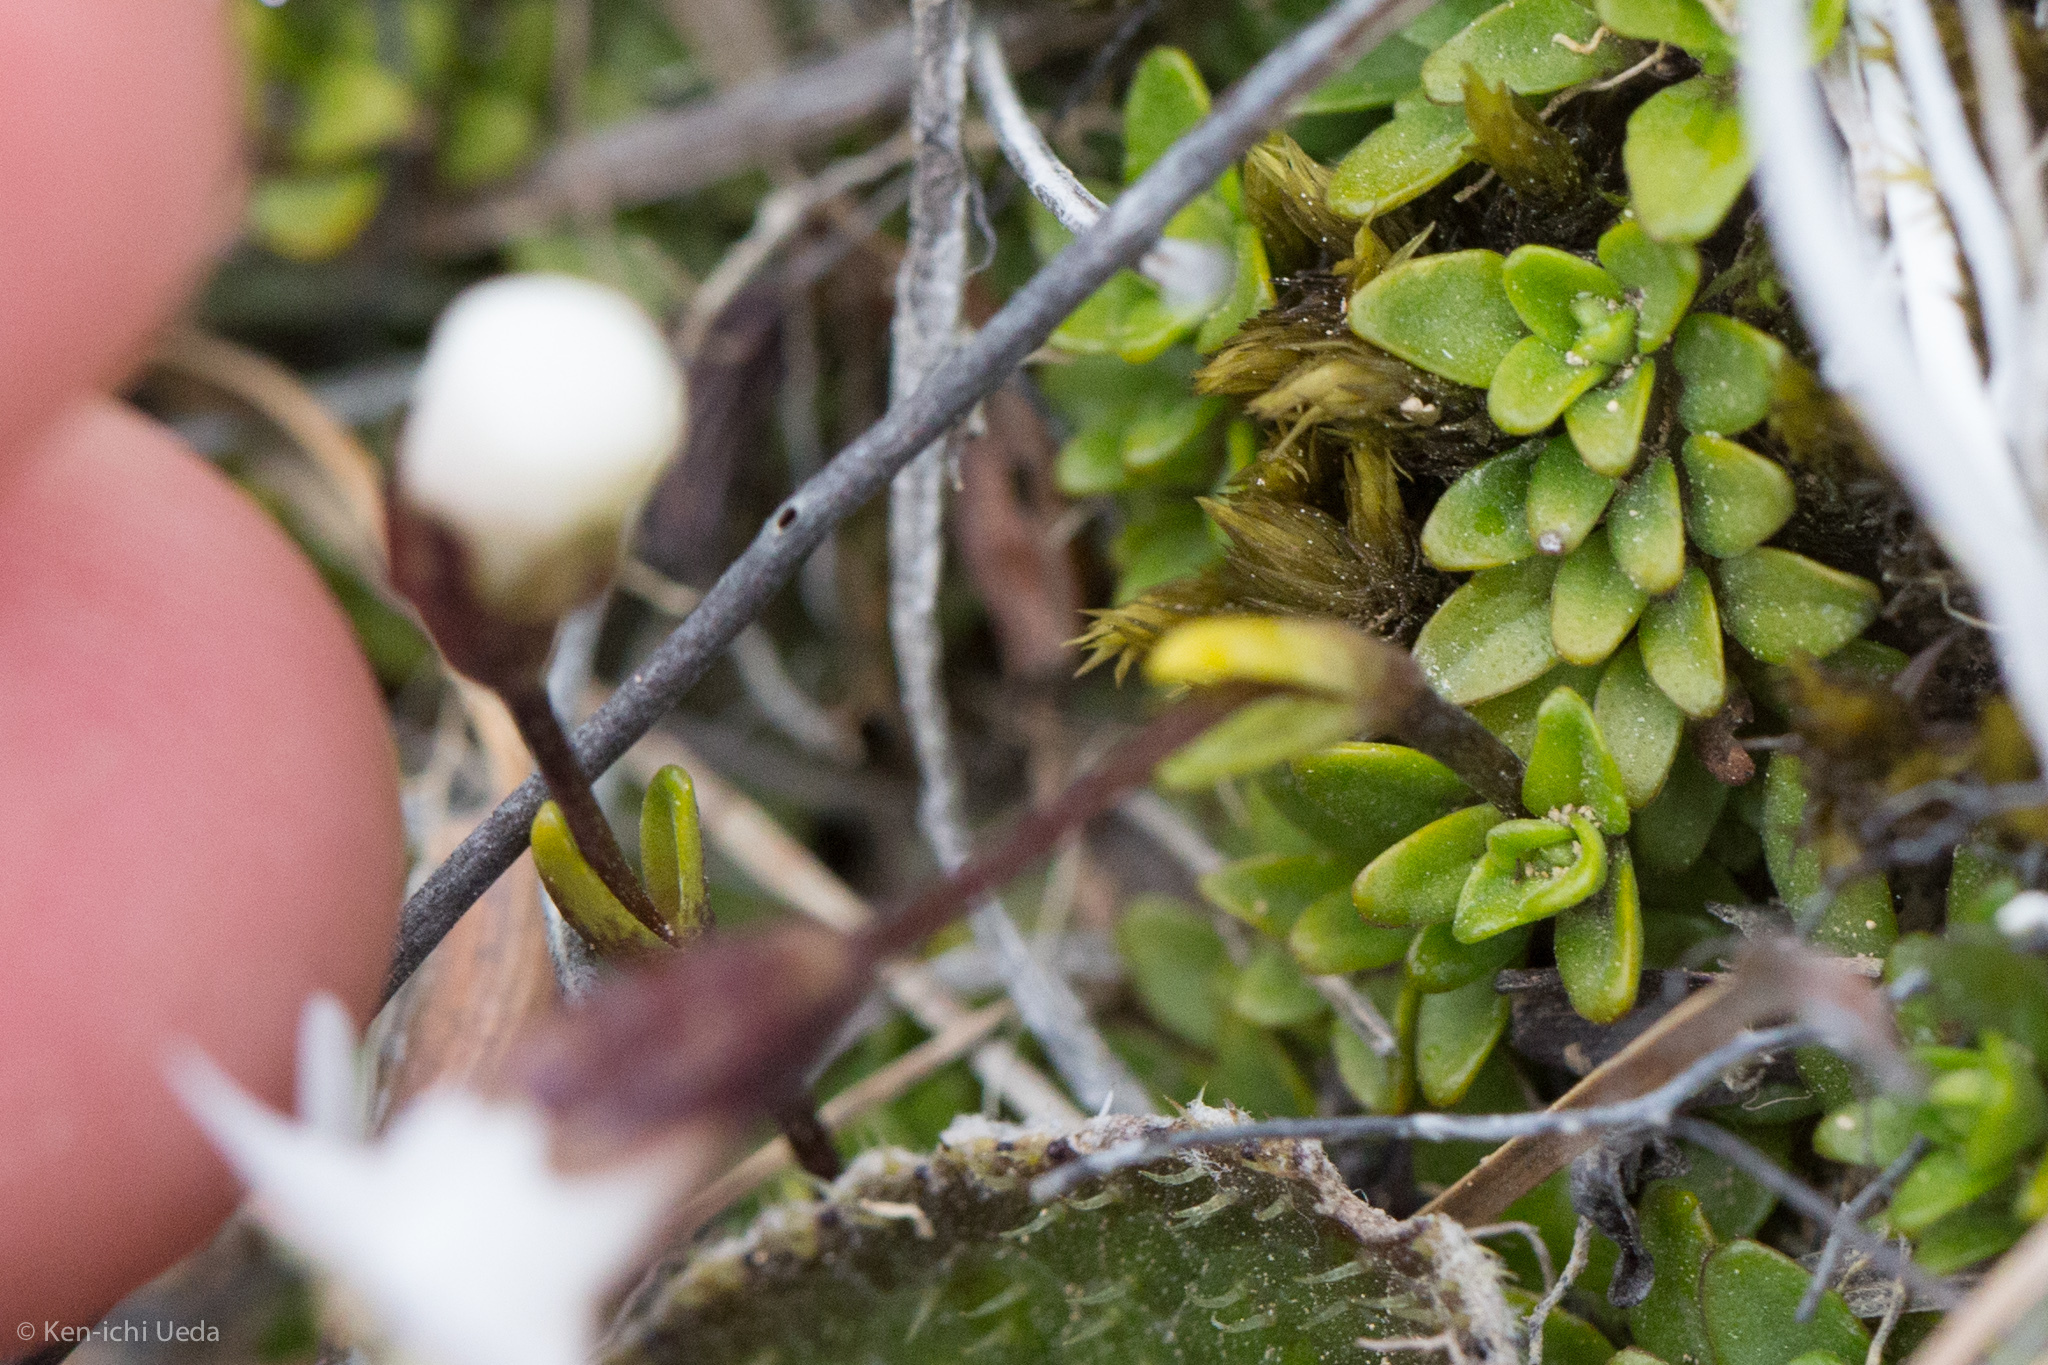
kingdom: Plantae
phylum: Tracheophyta
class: Magnoliopsida
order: Lamiales
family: Plantaginaceae
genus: Ourisia
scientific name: Ourisia caespitosa
